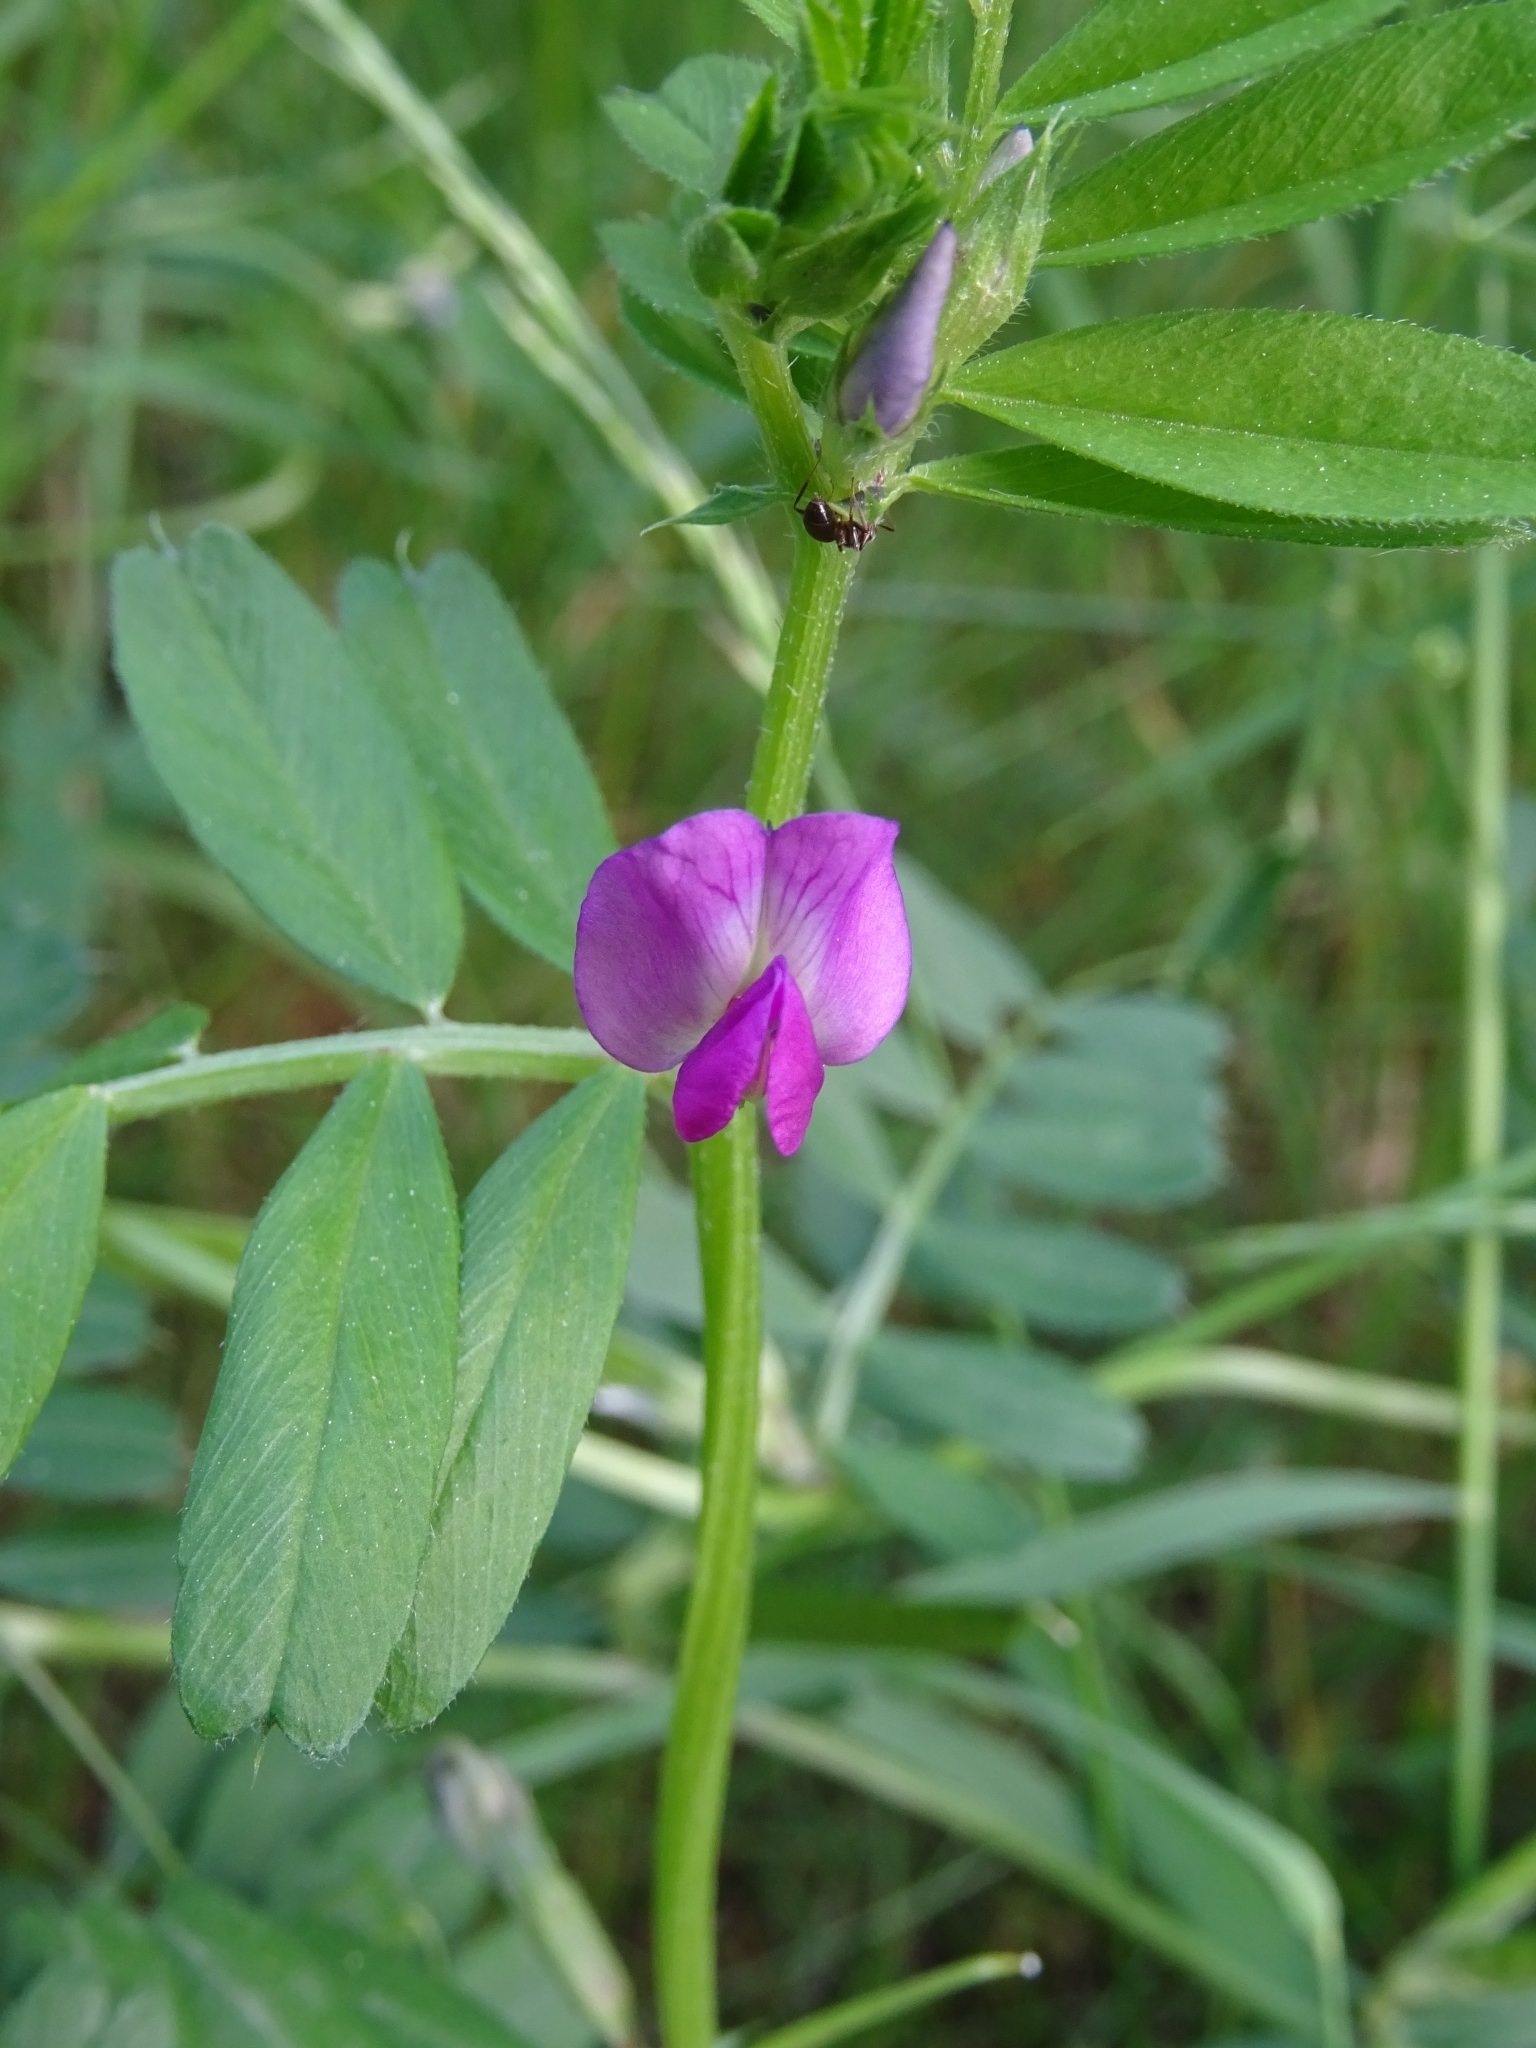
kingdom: Plantae
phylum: Tracheophyta
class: Magnoliopsida
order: Fabales
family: Fabaceae
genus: Vicia
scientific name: Vicia sativa
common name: Garden vetch
